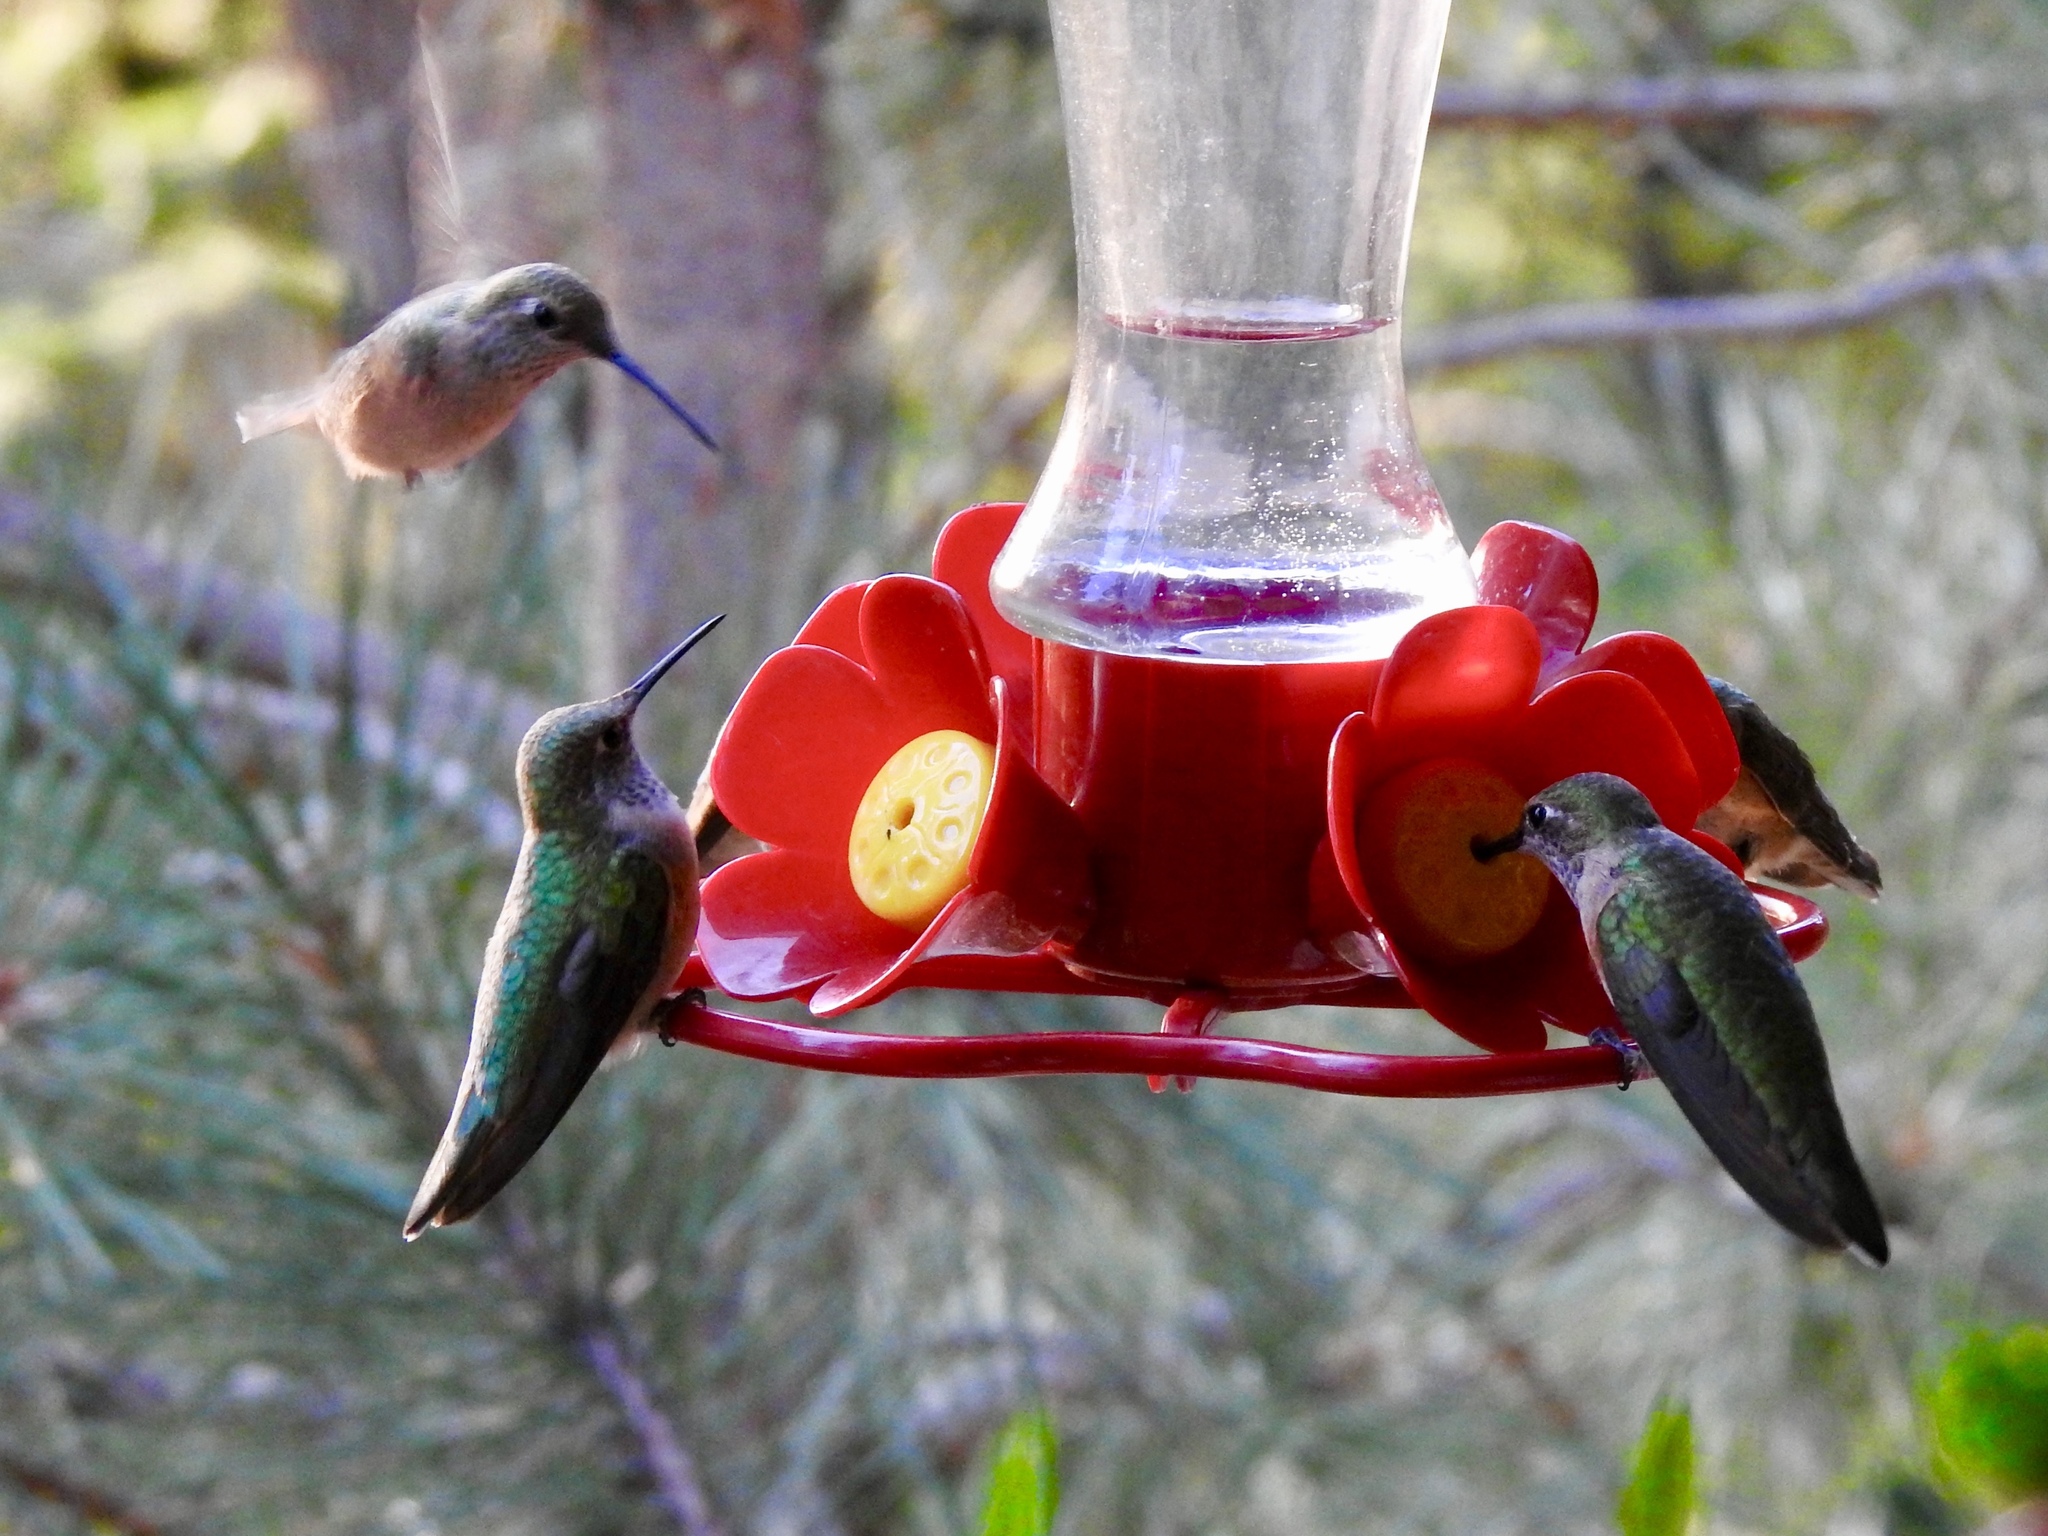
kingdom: Animalia
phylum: Chordata
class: Aves
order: Apodiformes
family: Trochilidae
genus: Selasphorus
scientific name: Selasphorus platycercus
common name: Broad-tailed hummingbird
